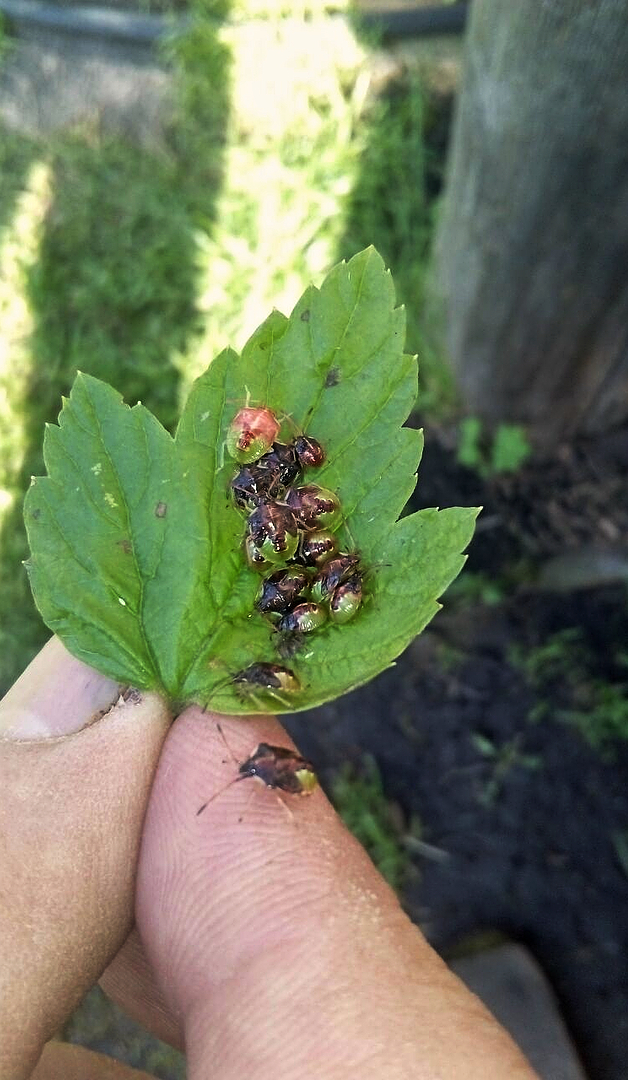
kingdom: Animalia
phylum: Arthropoda
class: Insecta
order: Hemiptera
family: Acanthosomatidae
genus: Elasmucha
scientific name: Elasmucha ferrugata
